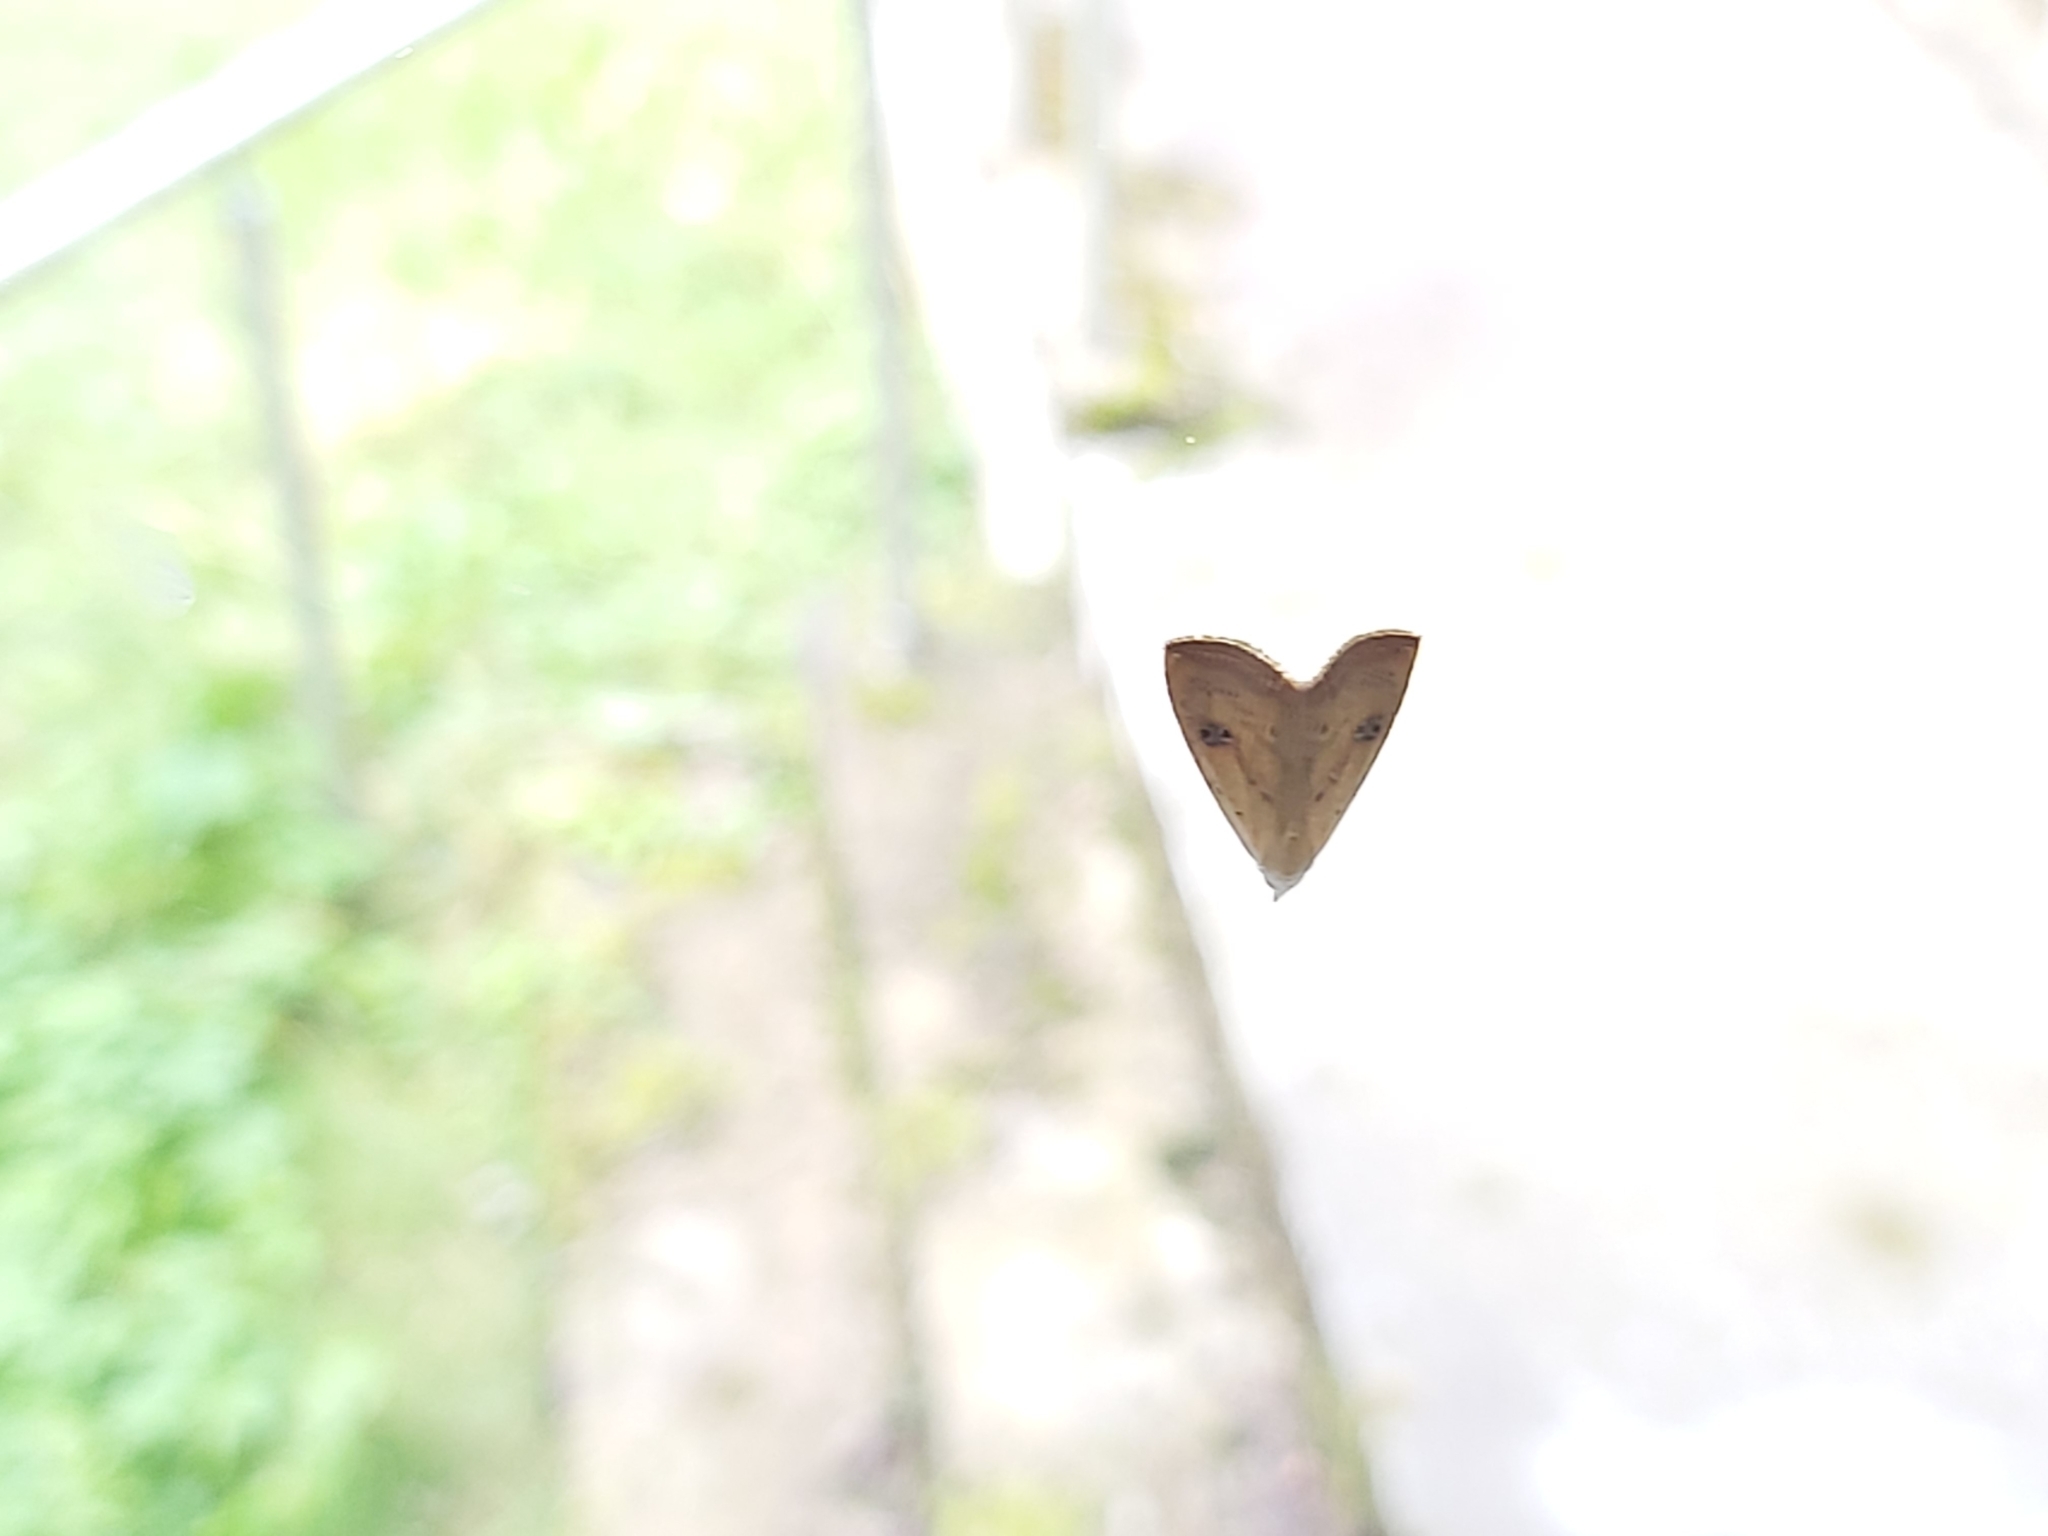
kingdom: Animalia
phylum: Arthropoda
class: Insecta
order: Lepidoptera
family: Erebidae
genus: Rivula
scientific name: Rivula sericealis
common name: Straw dot
